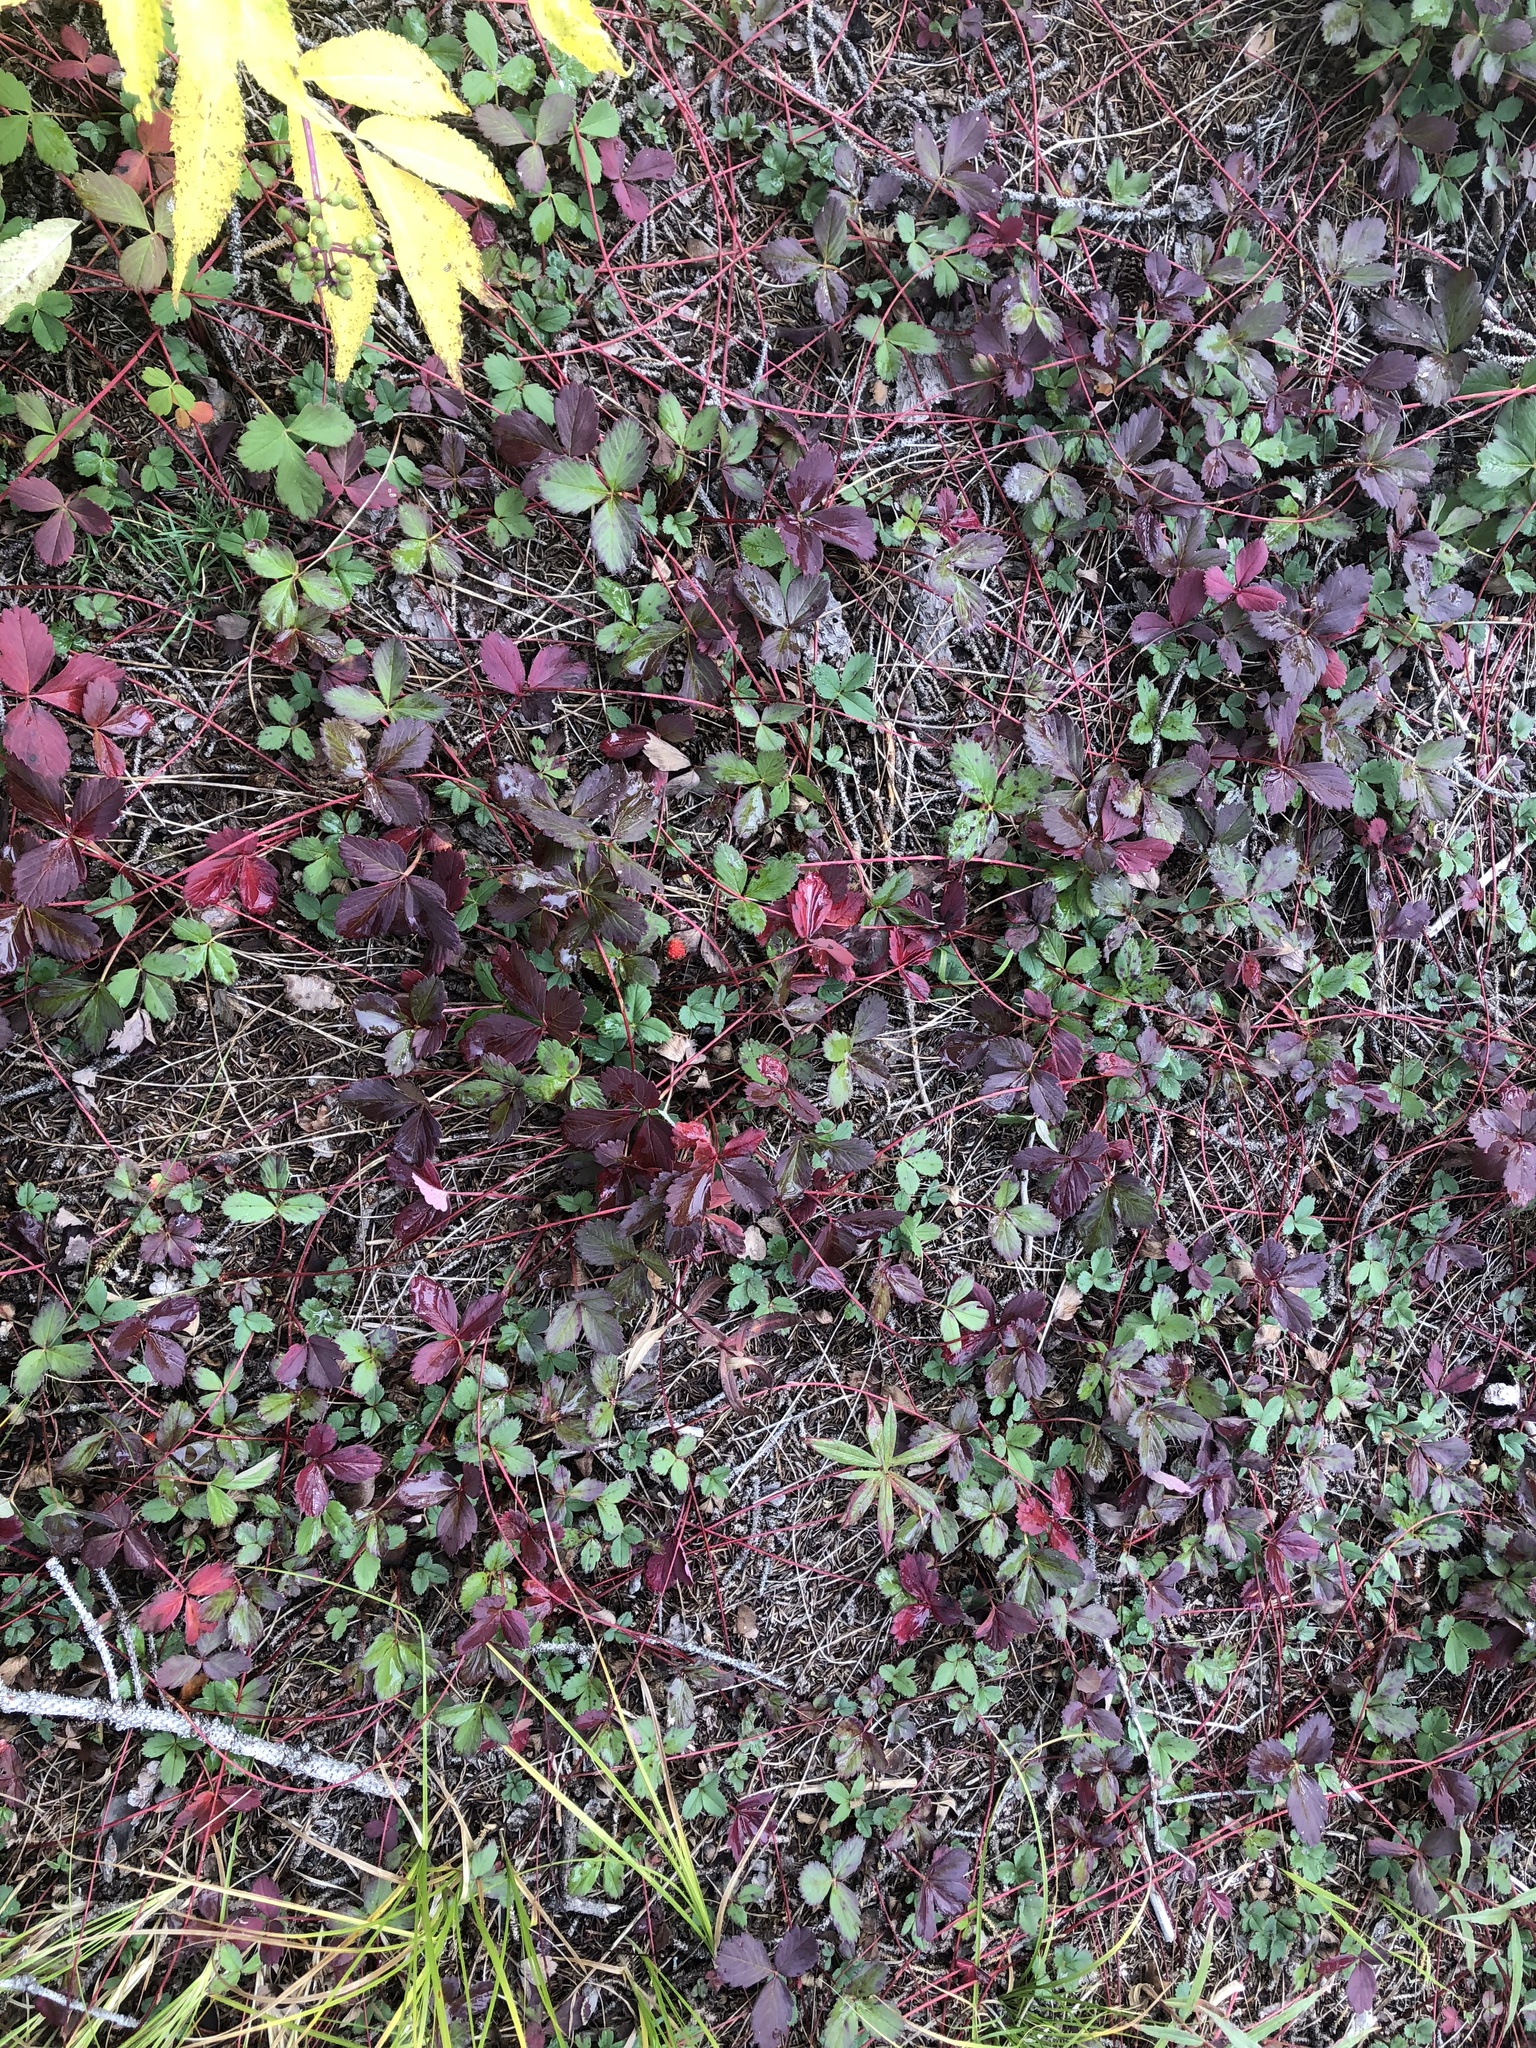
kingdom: Plantae
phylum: Tracheophyta
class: Magnoliopsida
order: Rosales
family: Rosaceae
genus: Fragaria
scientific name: Fragaria virginiana
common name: Thickleaved wild strawberry
